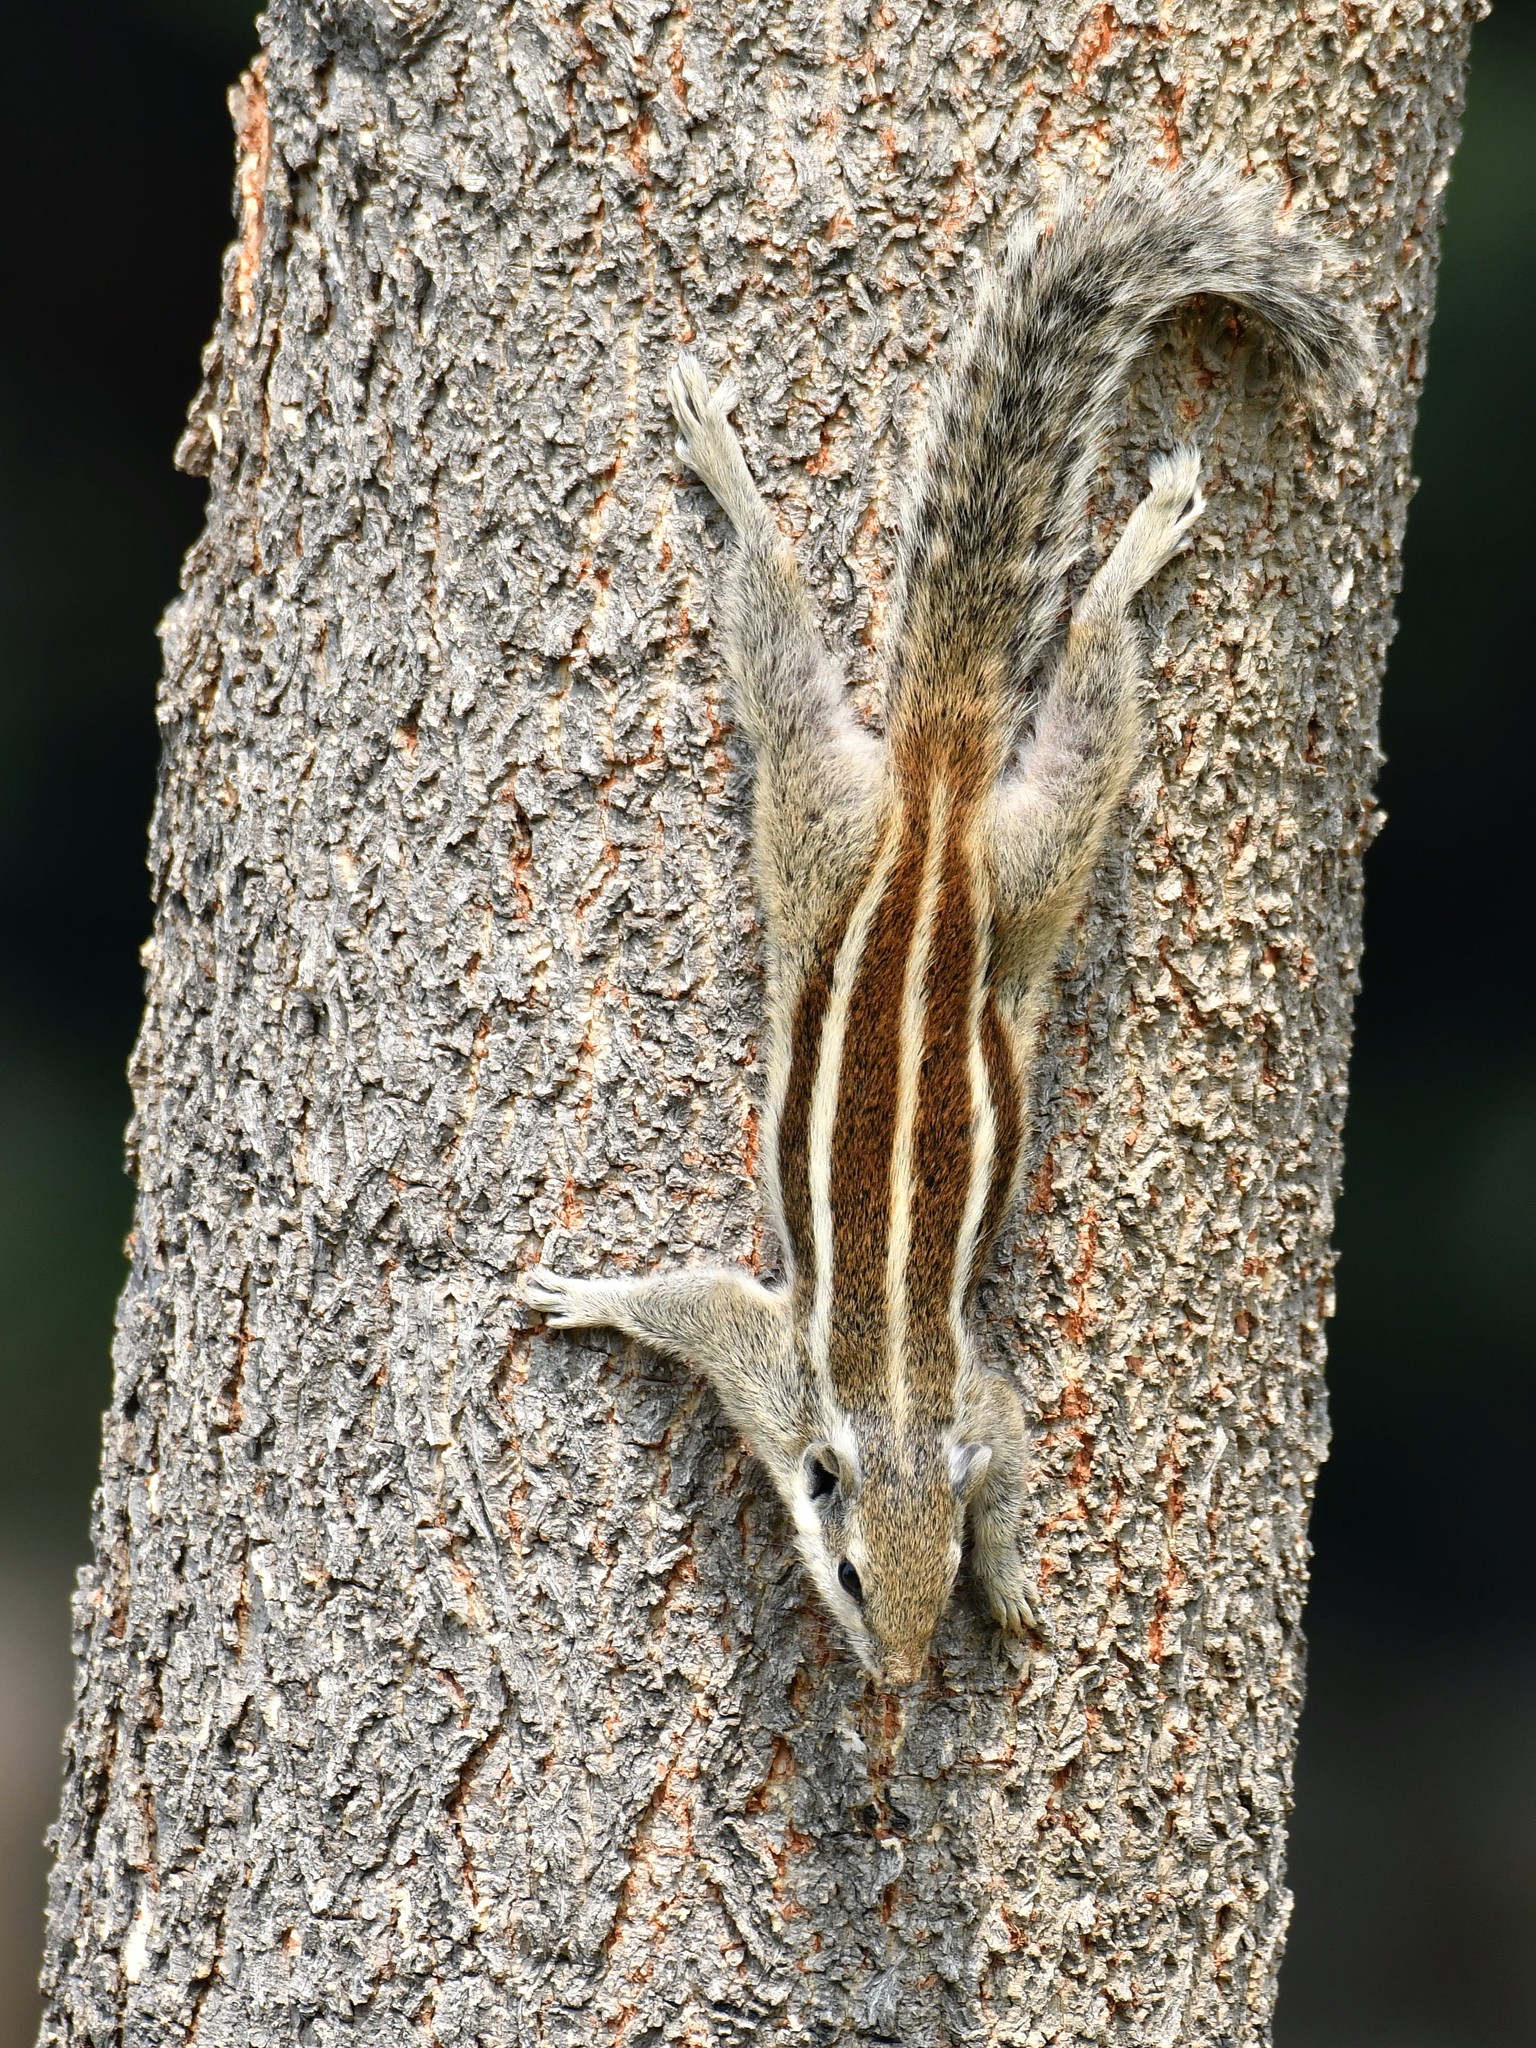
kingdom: Animalia
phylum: Chordata
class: Mammalia
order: Rodentia
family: Sciuridae
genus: Funambulus
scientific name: Funambulus pennantii
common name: Northern palm squirrel
